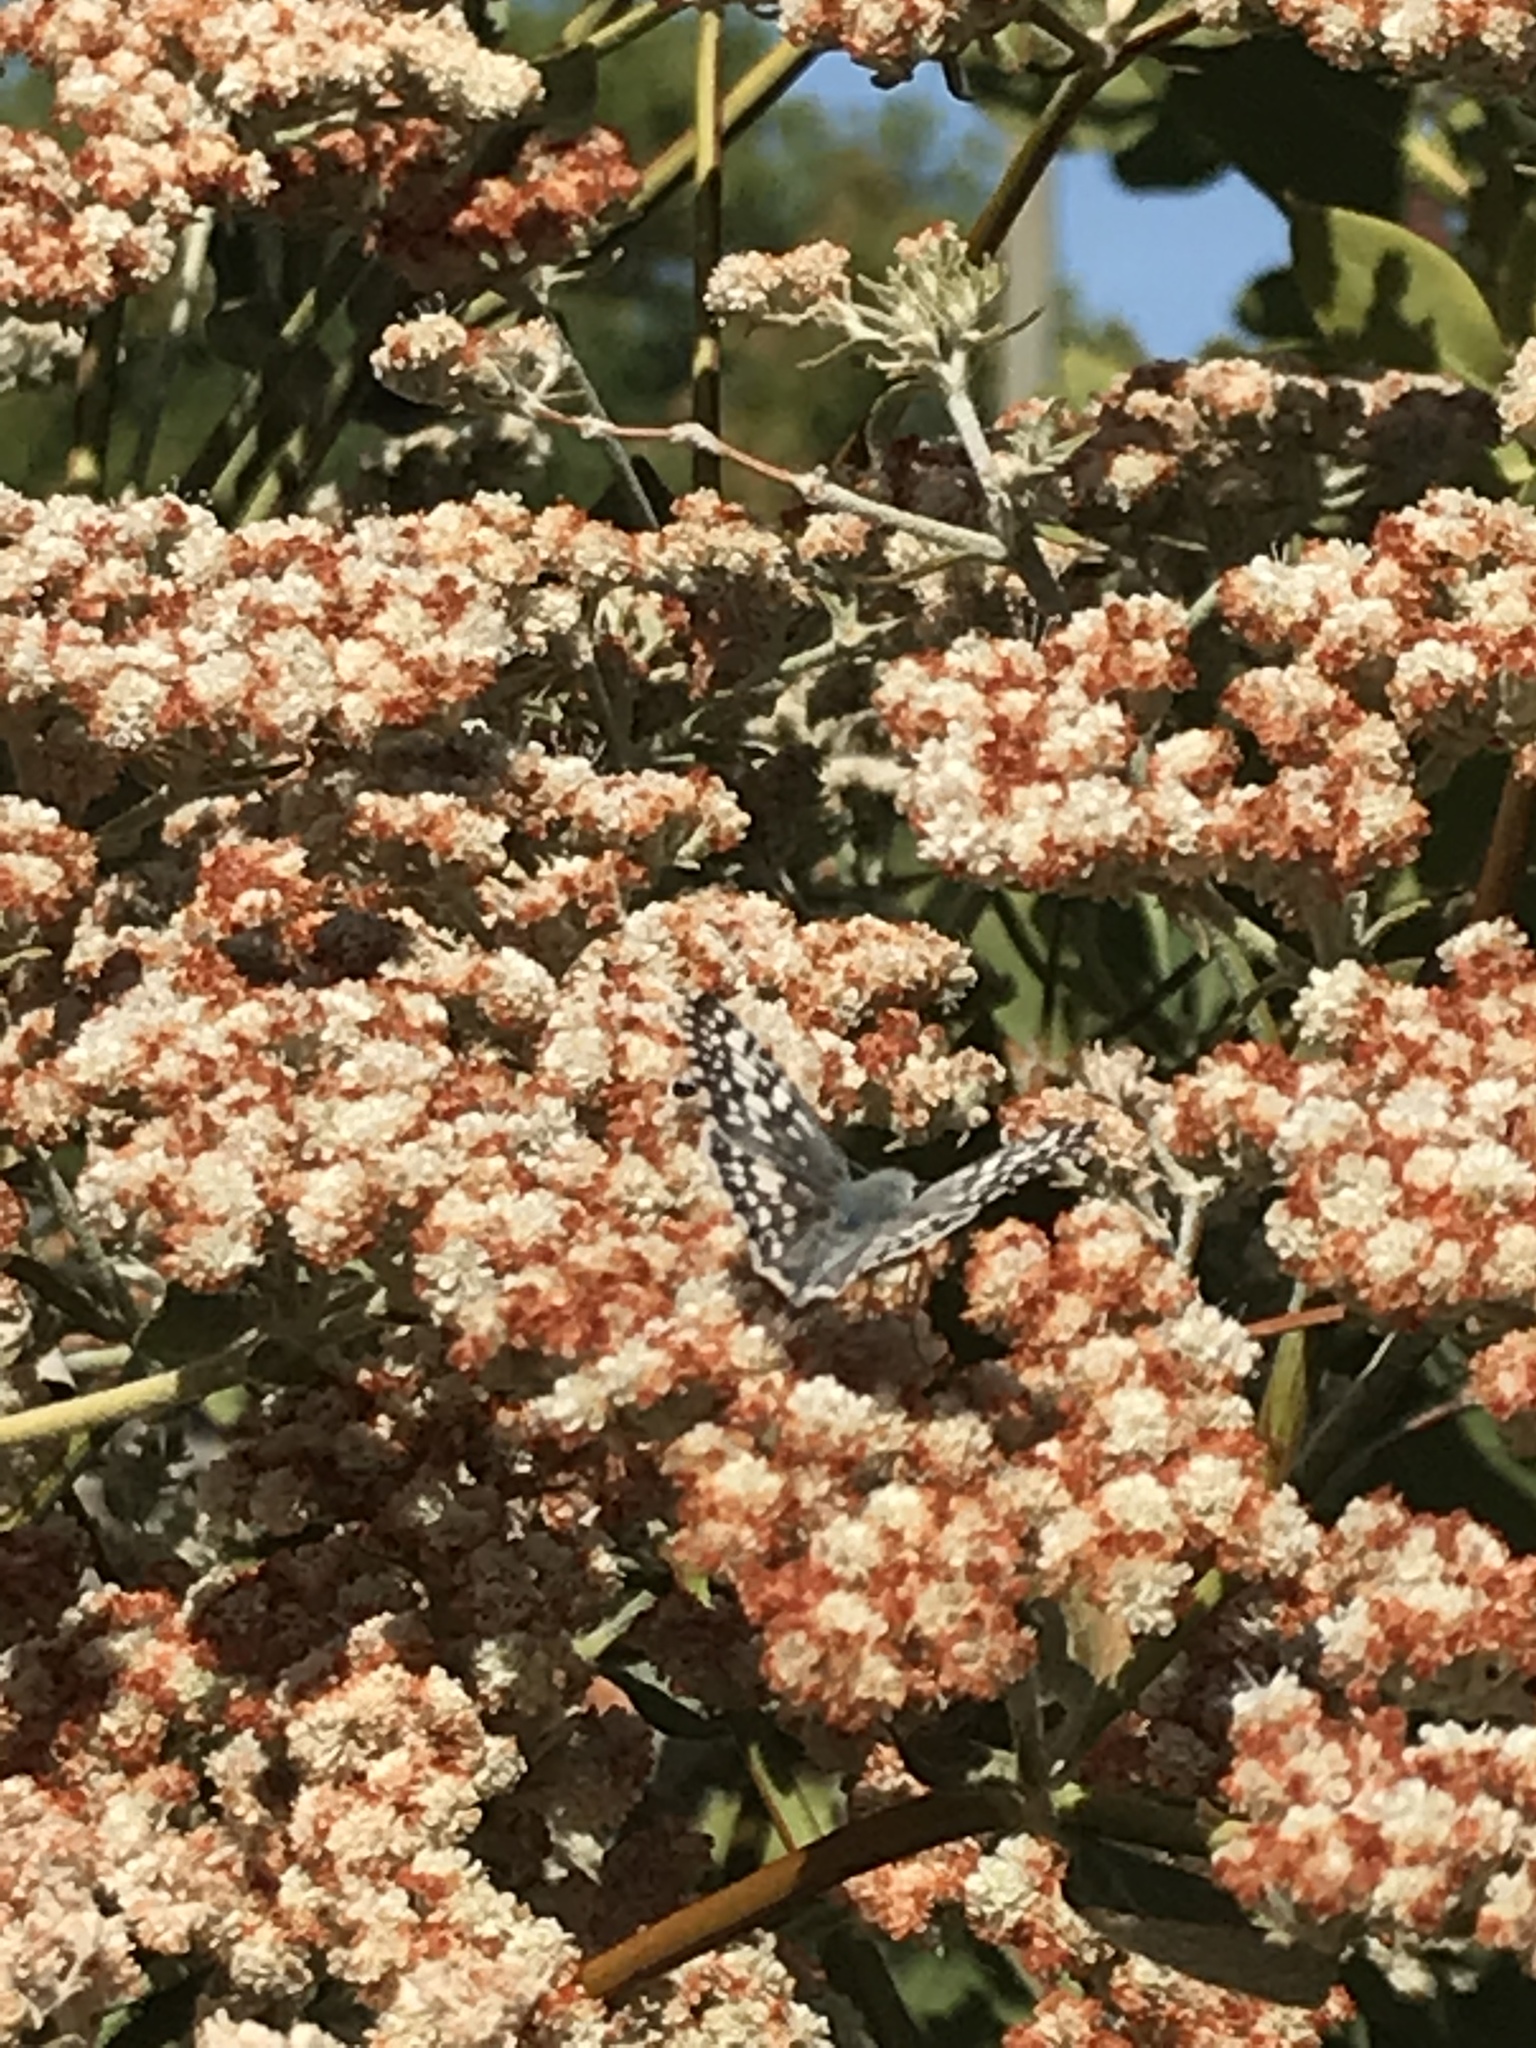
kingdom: Animalia
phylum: Arthropoda
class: Insecta
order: Lepidoptera
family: Hesperiidae
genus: Burnsius
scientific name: Burnsius communis
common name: Common checkered-skipper
